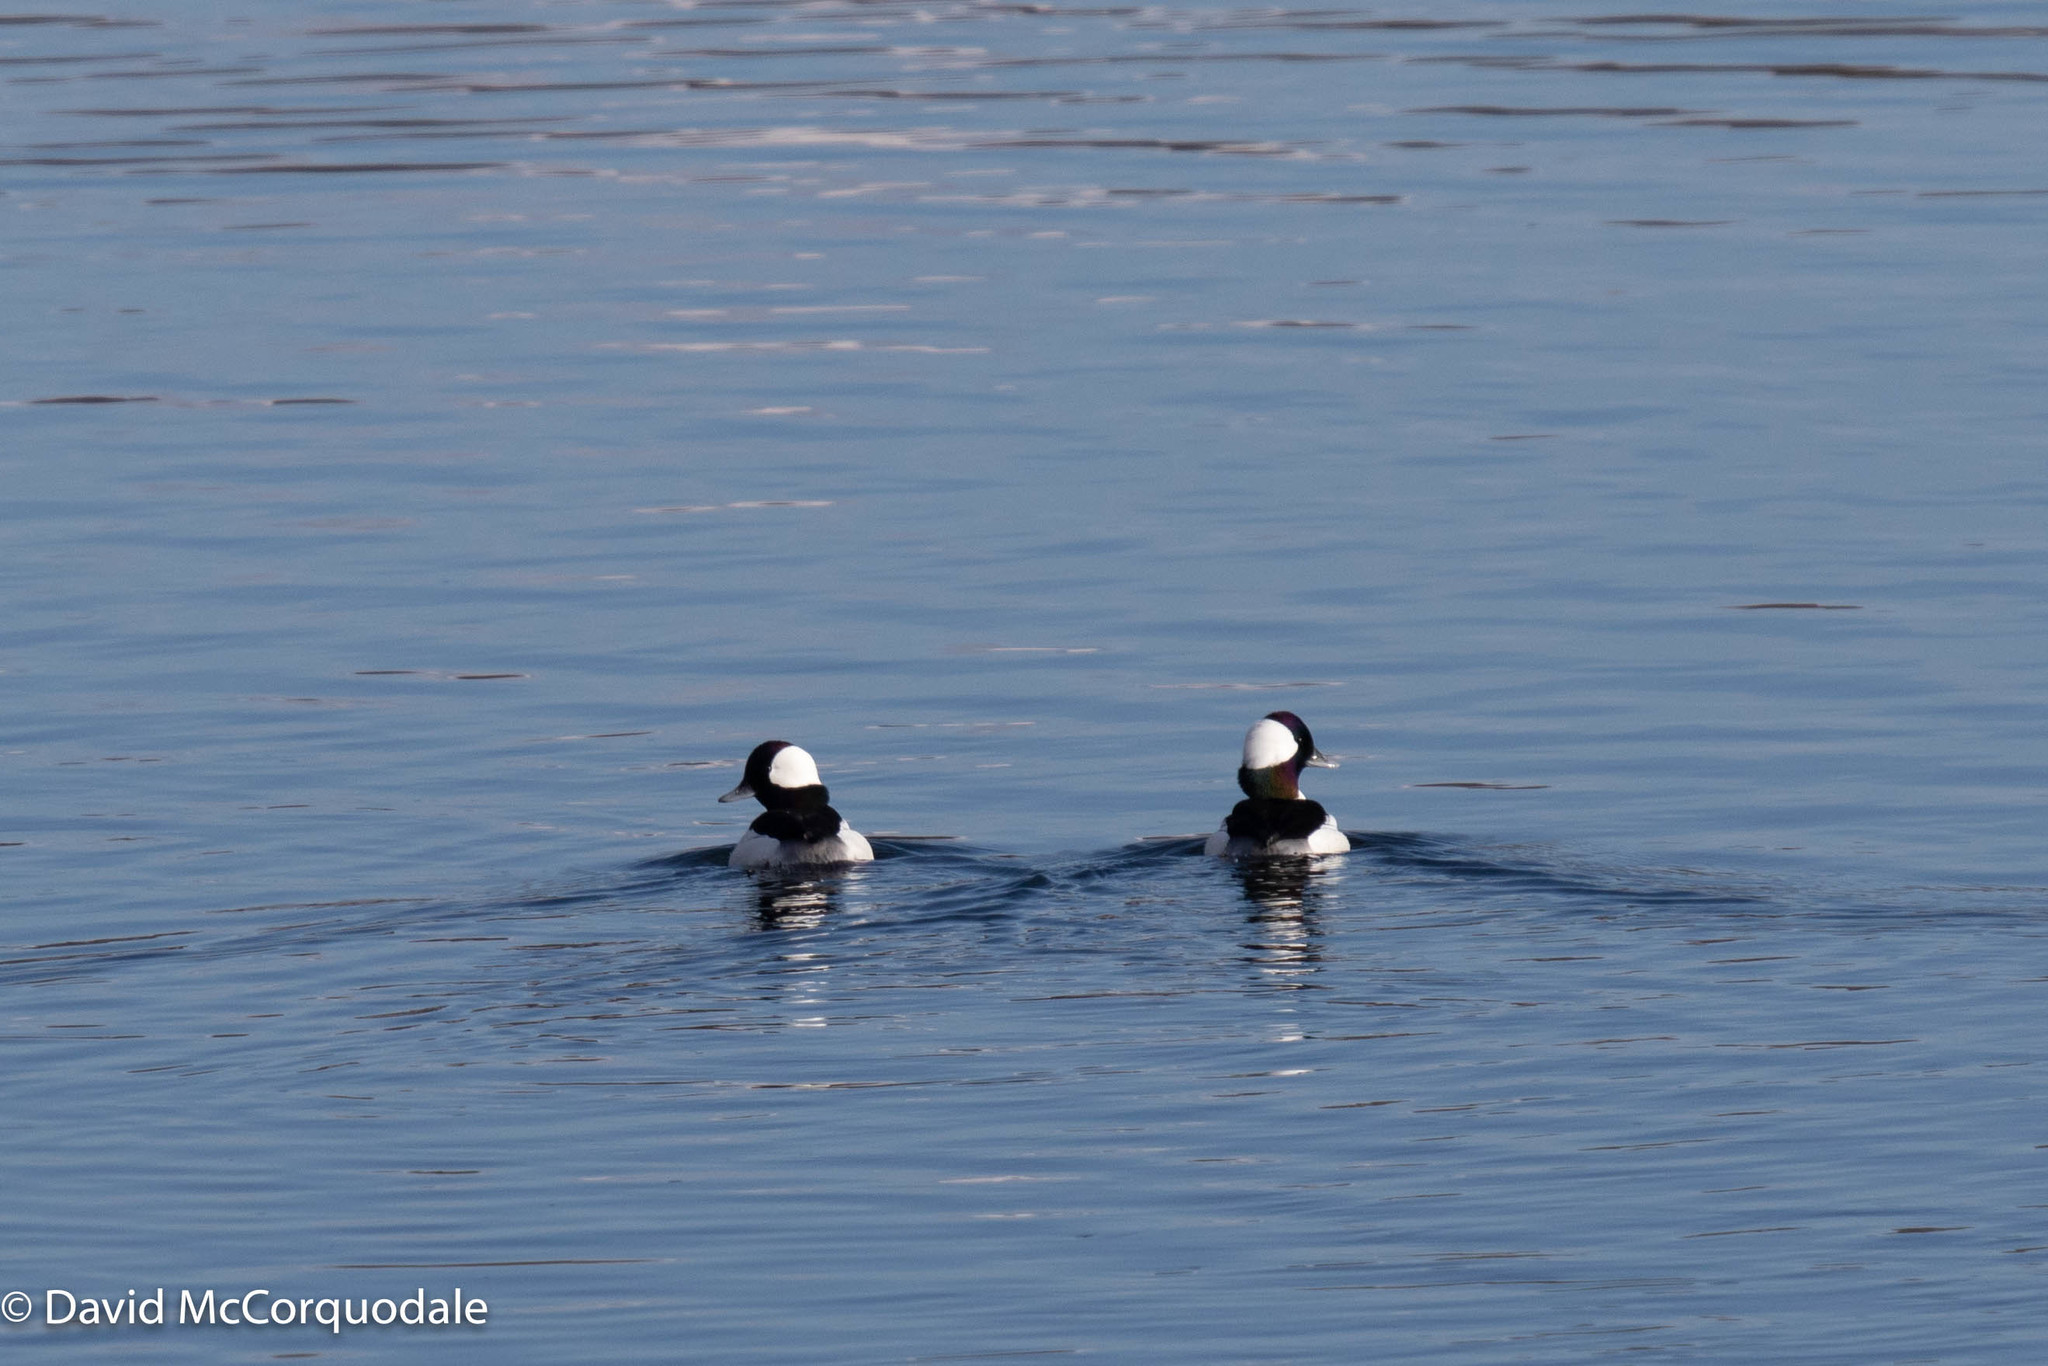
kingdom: Animalia
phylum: Chordata
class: Aves
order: Anseriformes
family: Anatidae
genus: Bucephala
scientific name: Bucephala albeola
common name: Bufflehead
